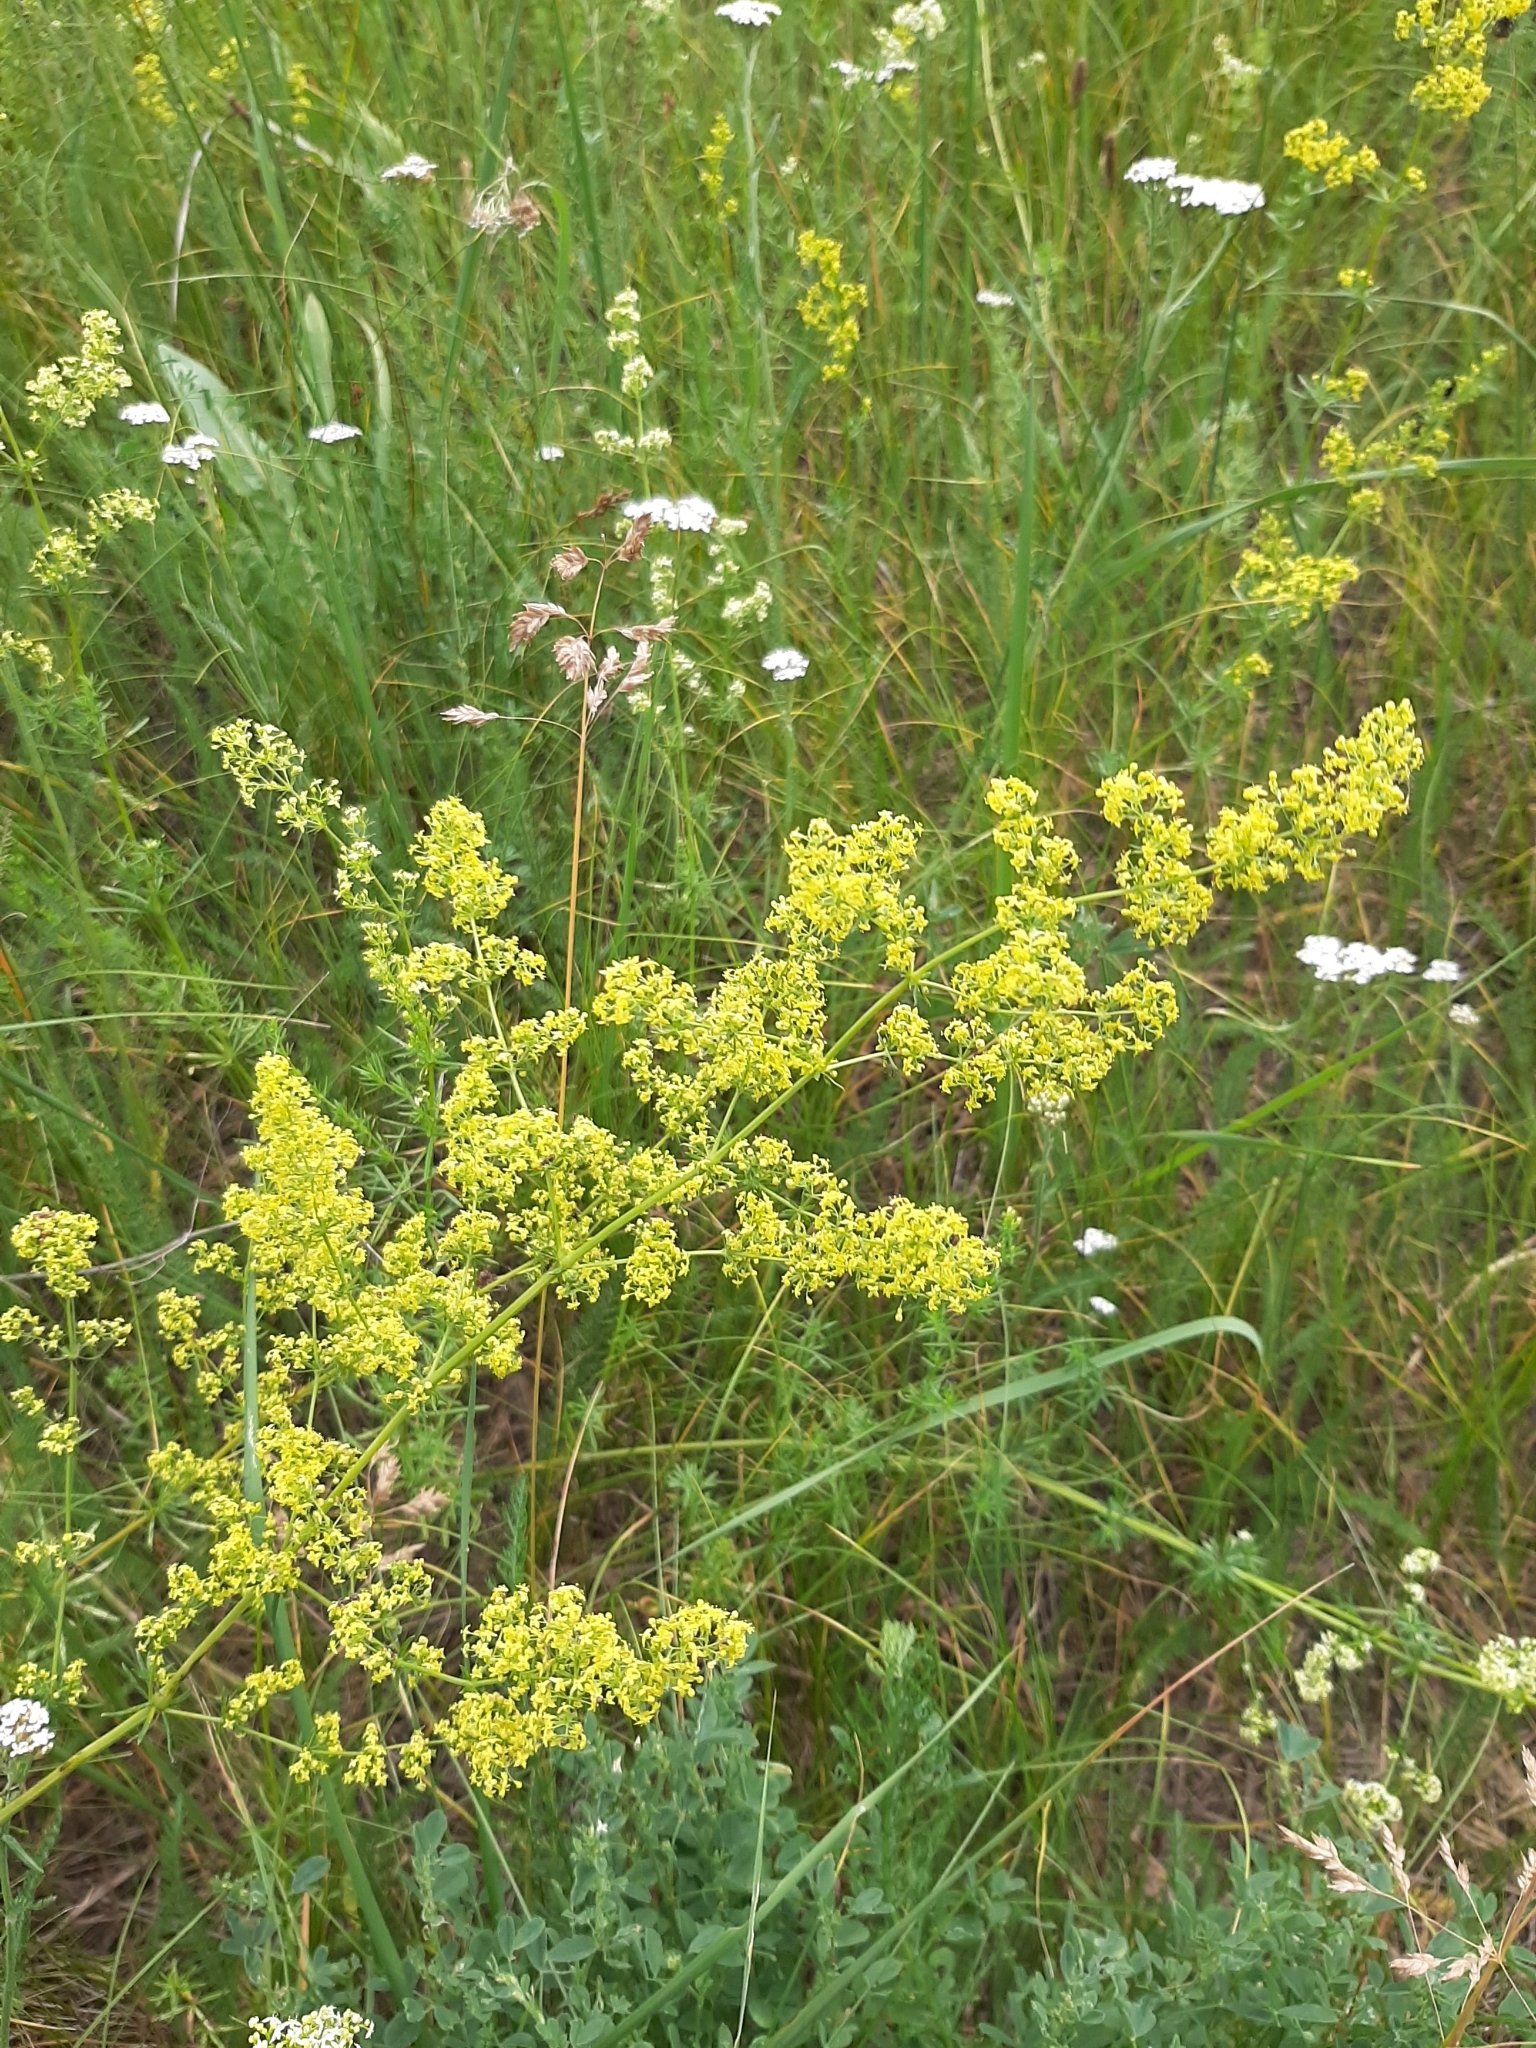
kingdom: Plantae
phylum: Tracheophyta
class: Magnoliopsida
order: Gentianales
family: Rubiaceae
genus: Galium
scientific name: Galium verum
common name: Lady's bedstraw
